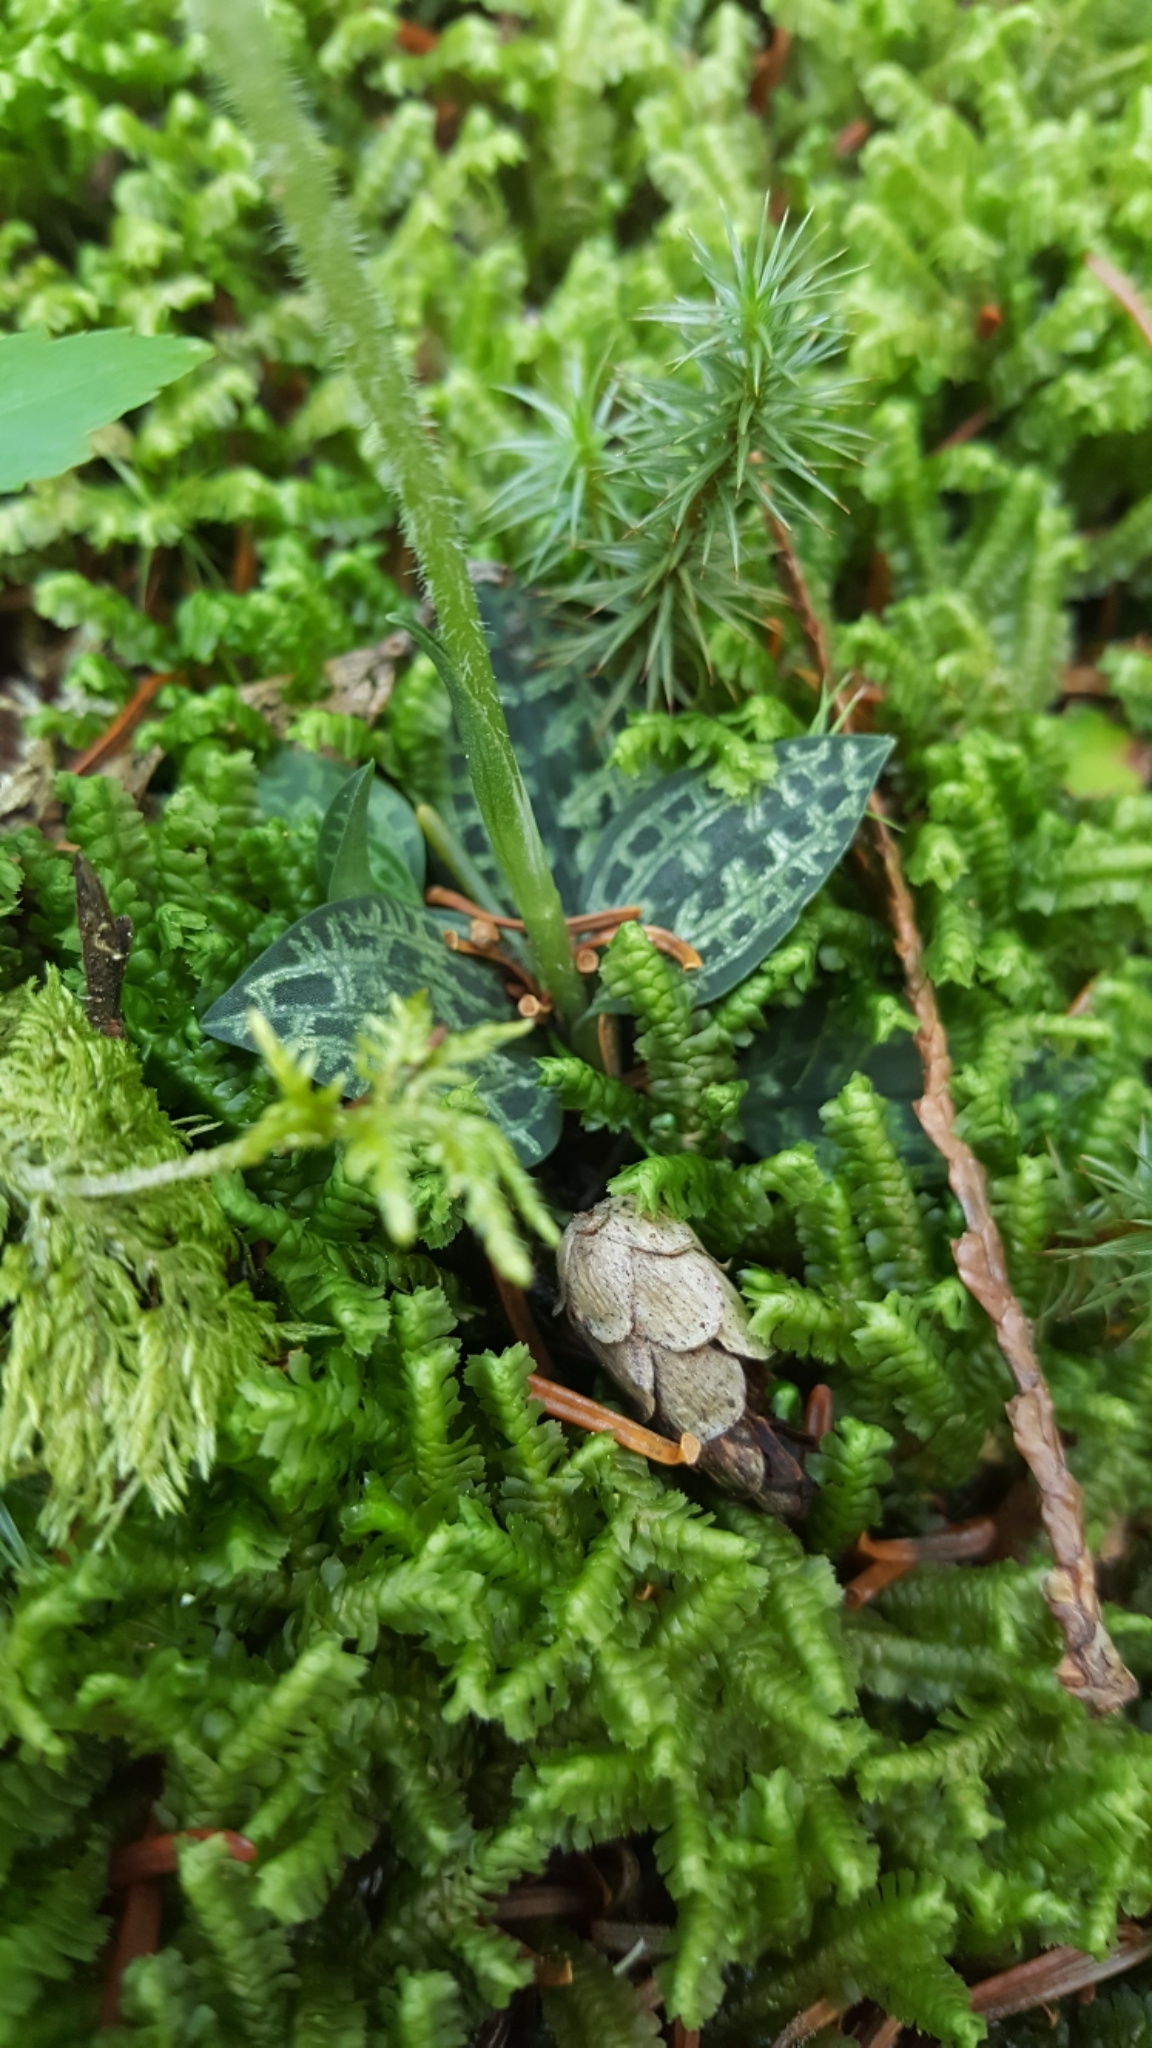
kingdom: Plantae
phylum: Tracheophyta
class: Liliopsida
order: Asparagales
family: Orchidaceae
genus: Goodyera
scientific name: Goodyera repens
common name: Creeping lady's-tresses
